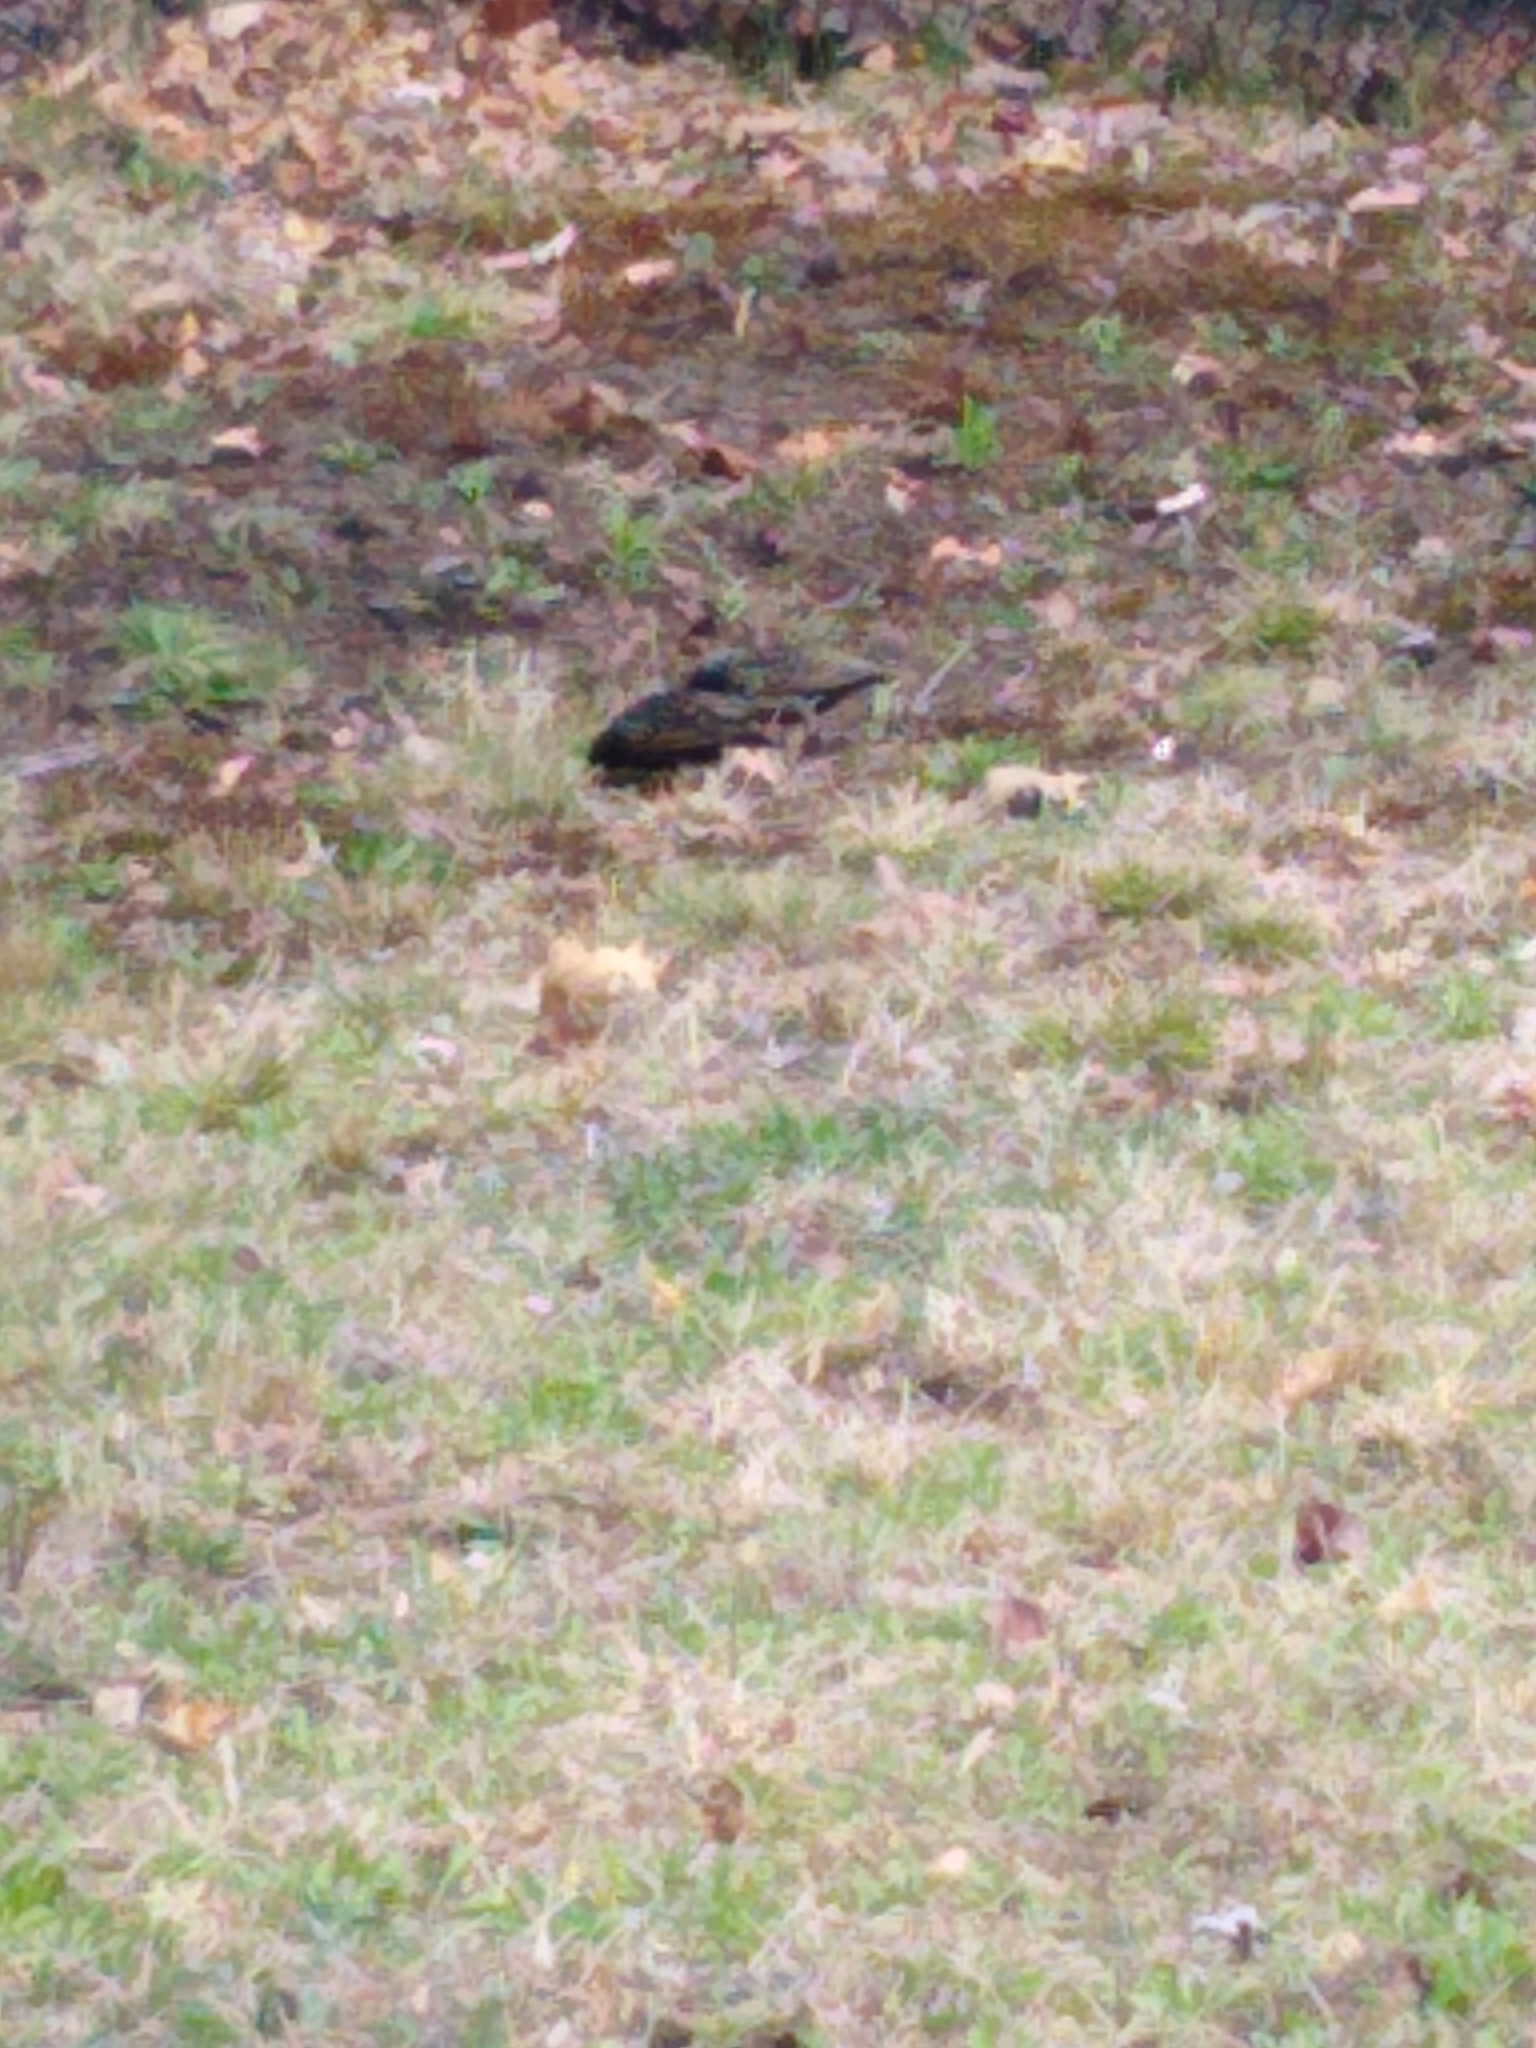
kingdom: Animalia
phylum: Chordata
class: Aves
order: Passeriformes
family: Sturnidae
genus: Sturnus
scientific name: Sturnus vulgaris
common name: Common starling
